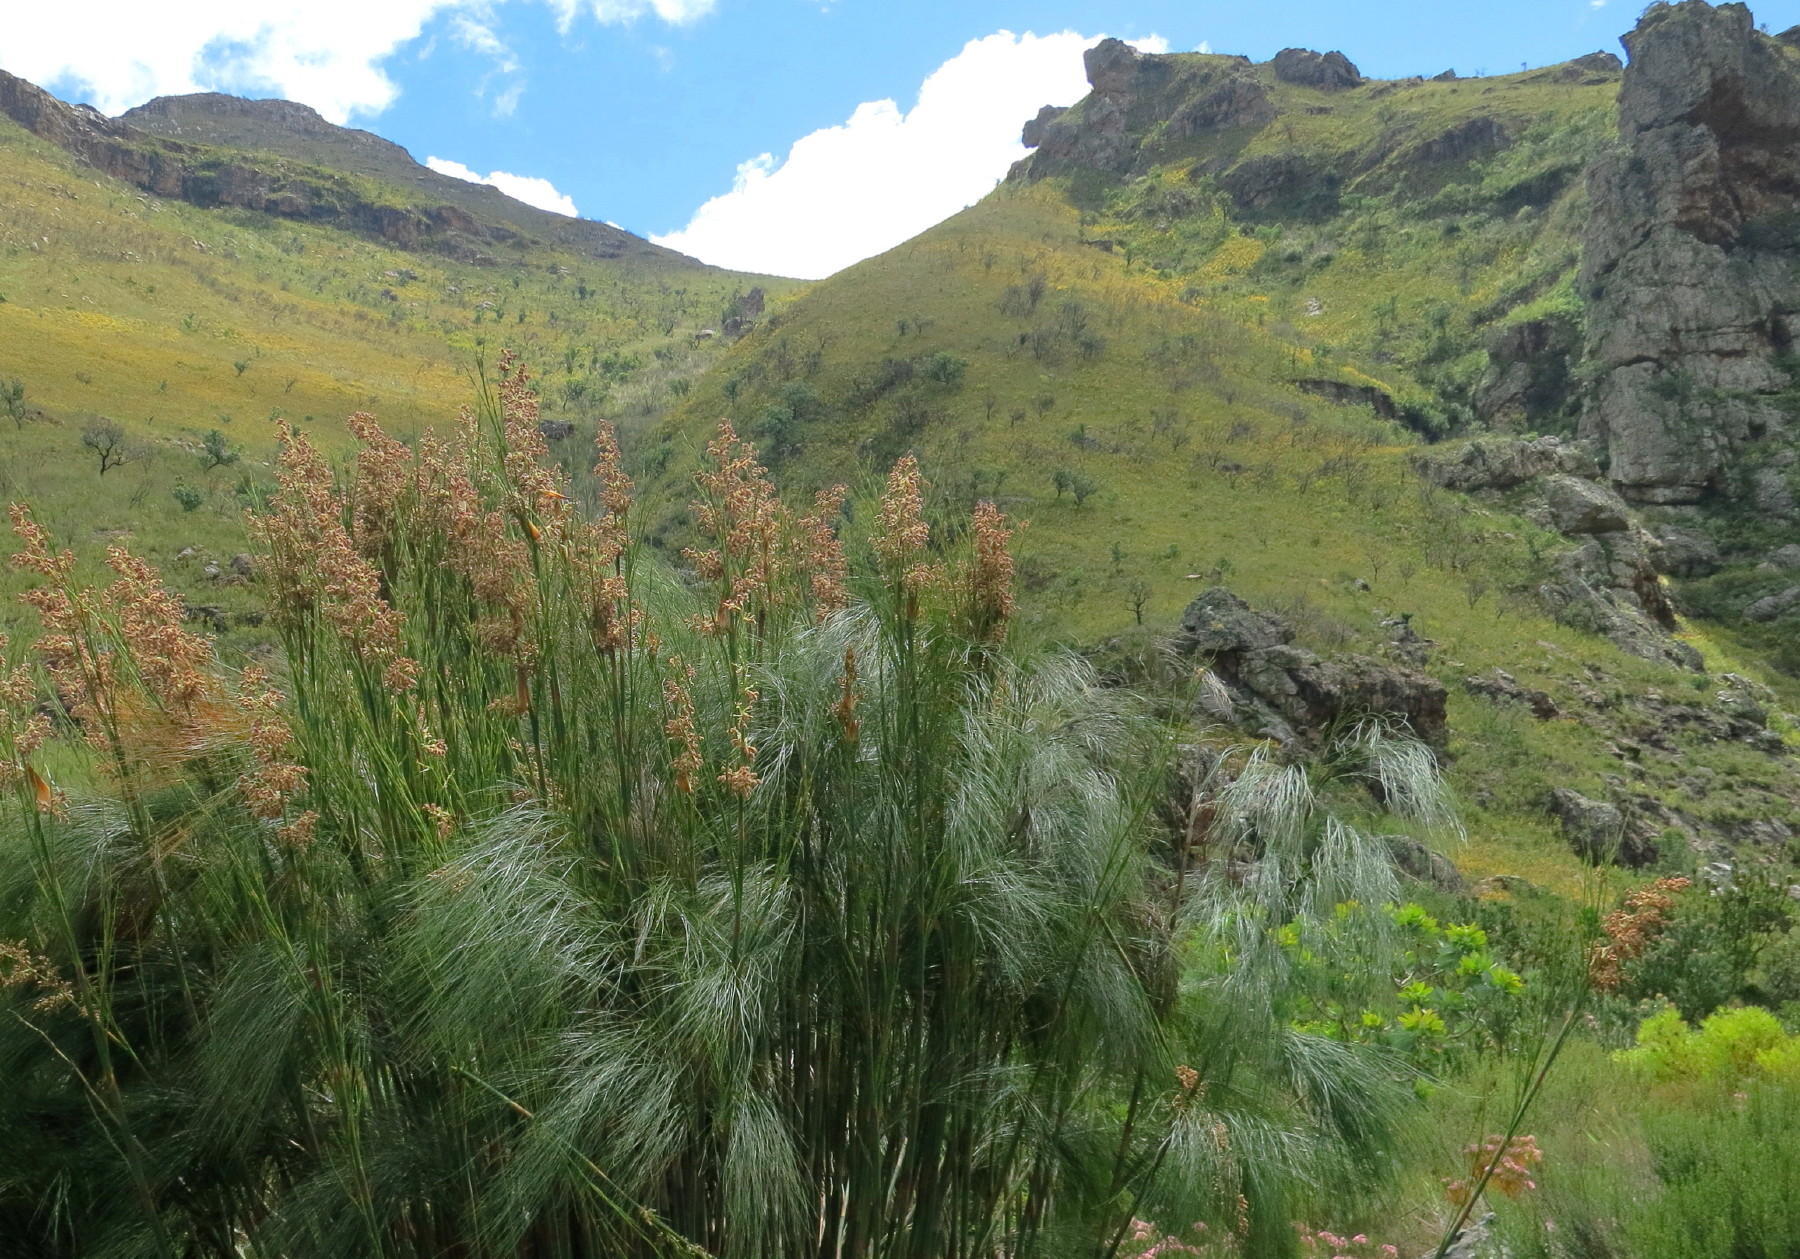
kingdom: Plantae
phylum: Tracheophyta
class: Liliopsida
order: Poales
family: Restionaceae
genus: Cannomois
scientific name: Cannomois grandis
